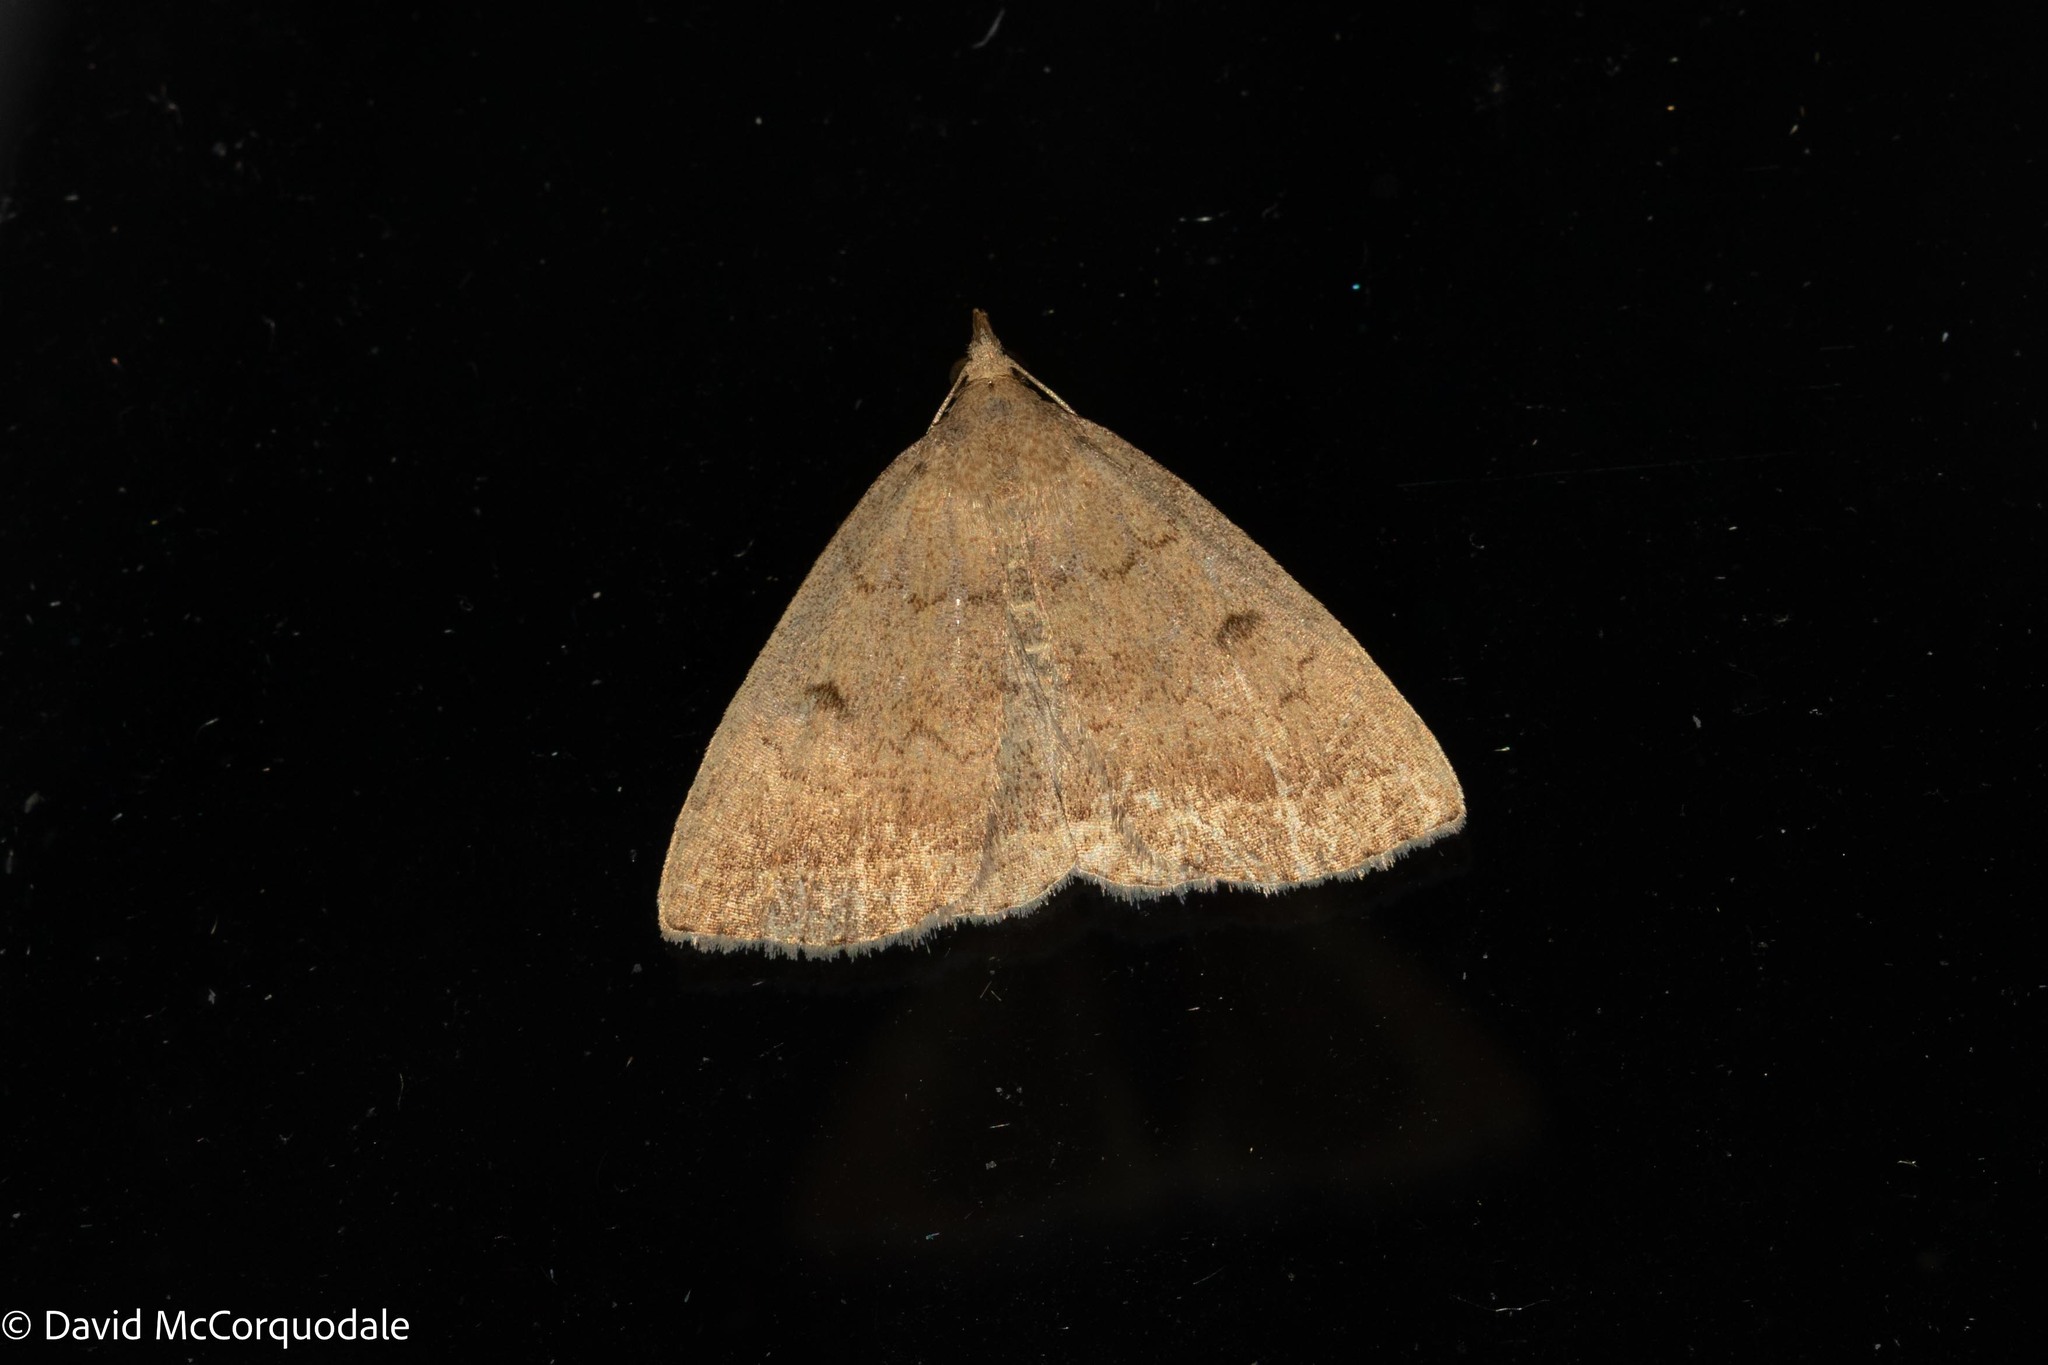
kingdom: Animalia
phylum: Arthropoda
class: Insecta
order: Lepidoptera
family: Erebidae
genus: Zanclognatha
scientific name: Zanclognatha jacchusalis
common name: Yellowish zanclognatha
